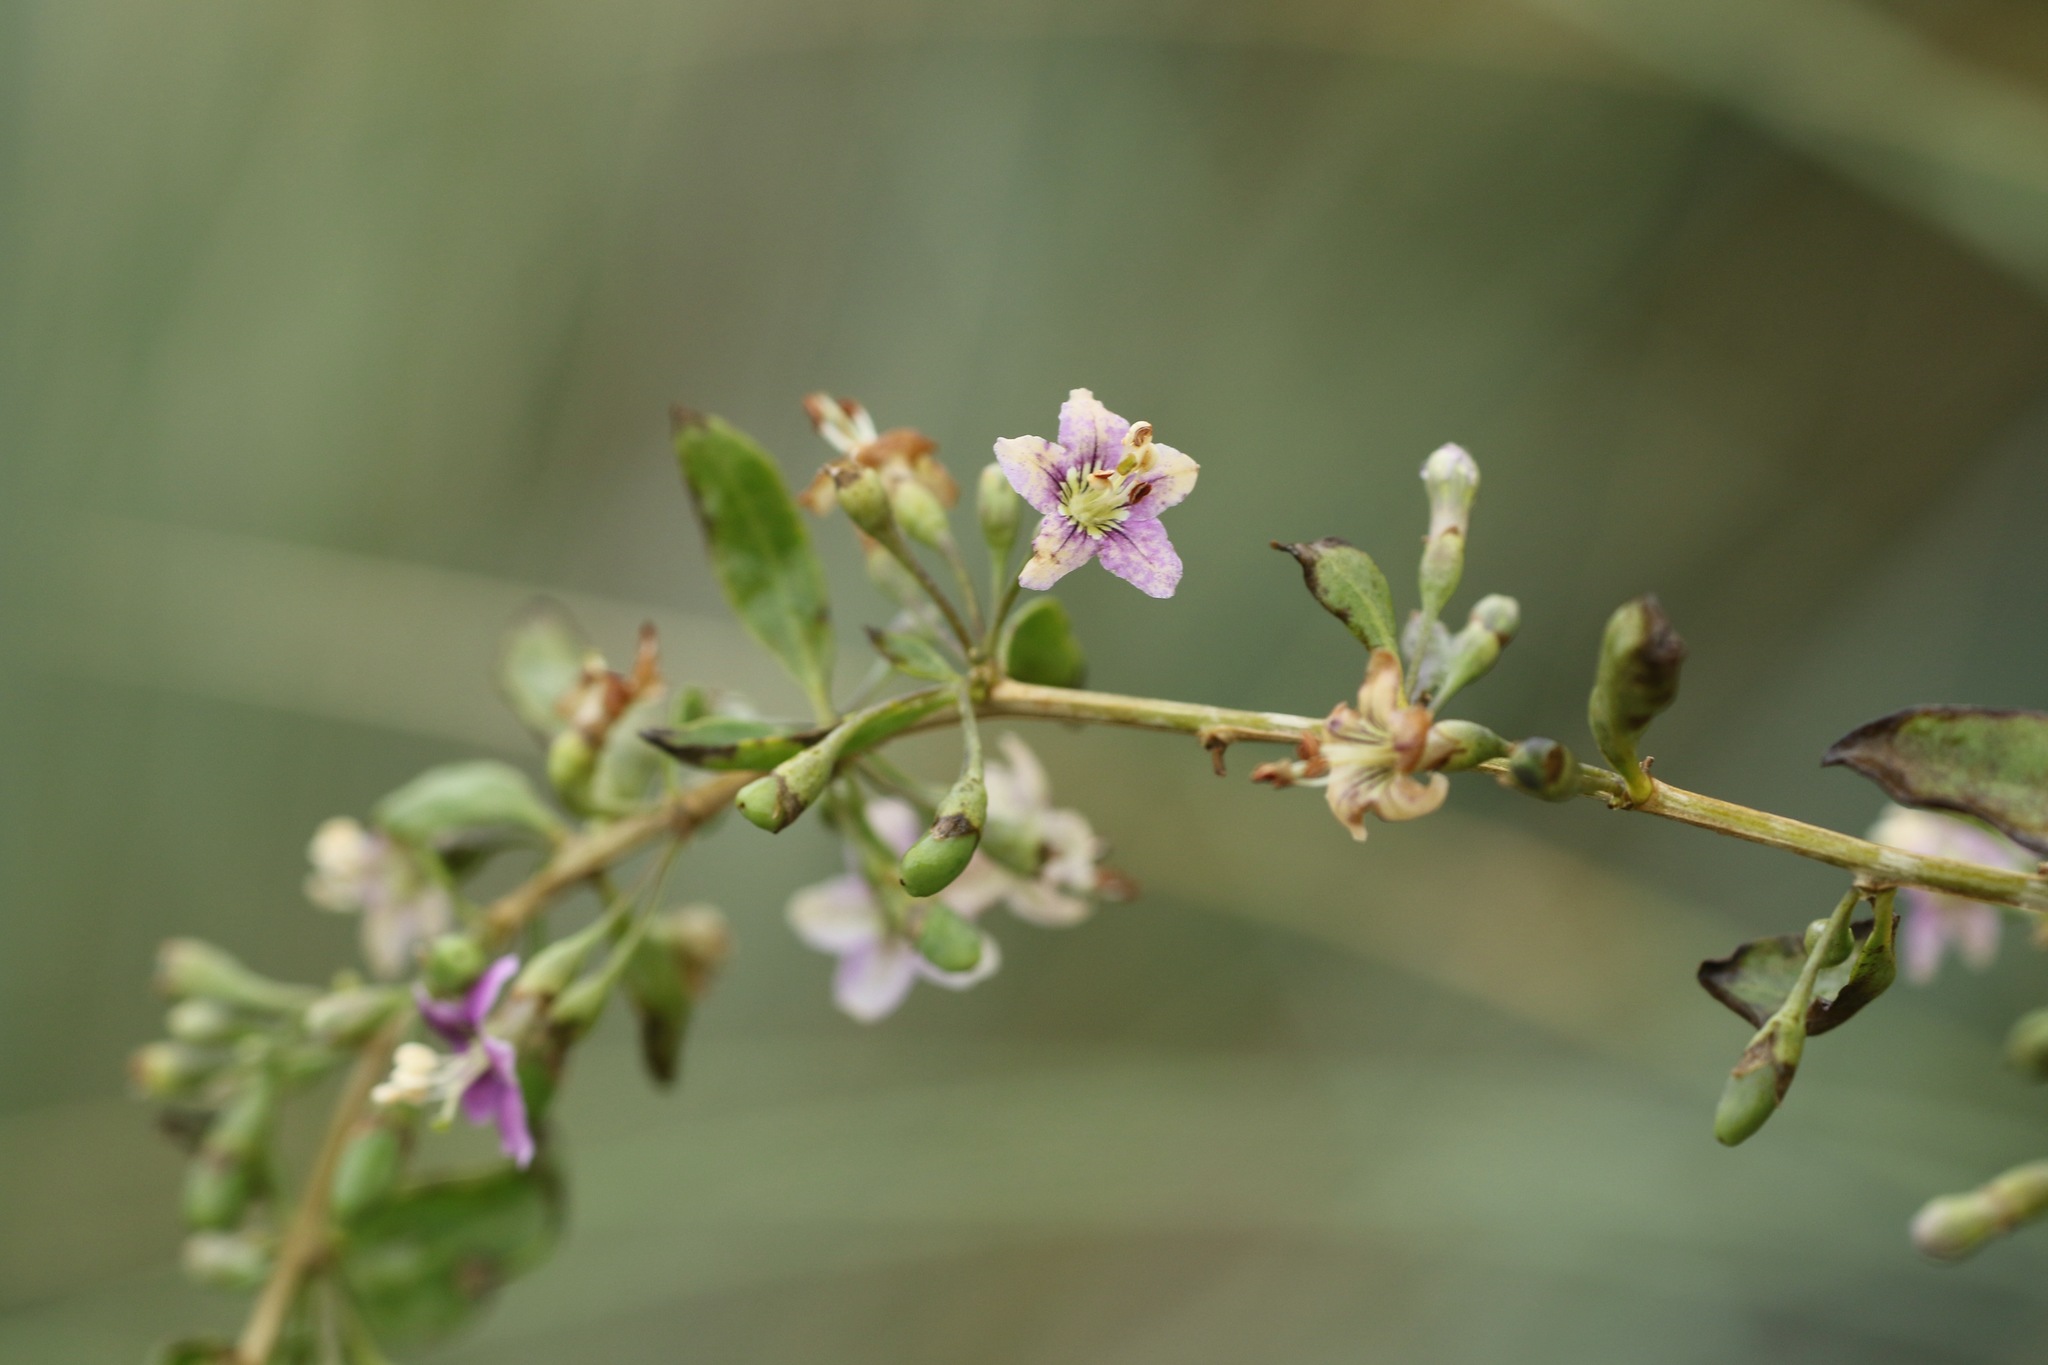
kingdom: Plantae
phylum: Tracheophyta
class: Magnoliopsida
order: Solanales
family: Solanaceae
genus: Lycium
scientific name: Lycium barbarum
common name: Duke of argyll's teaplant
